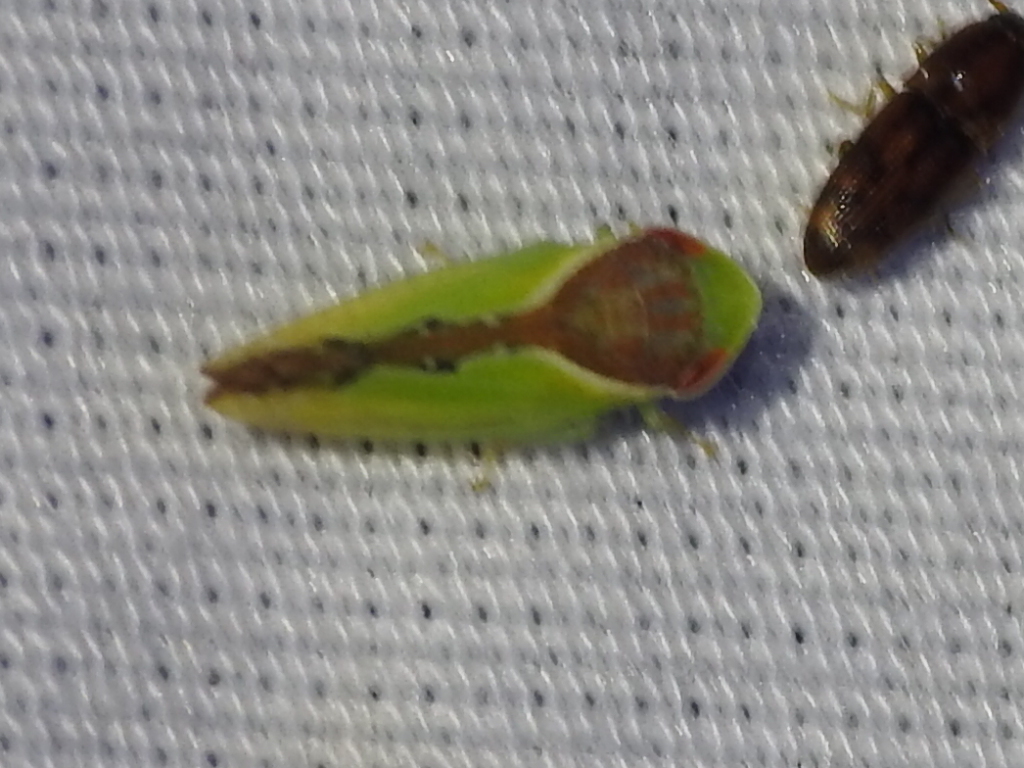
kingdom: Animalia
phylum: Arthropoda
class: Insecta
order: Hemiptera
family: Cicadellidae
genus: Omansobara ing
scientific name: Omansobara ing Omansobara palliolata
